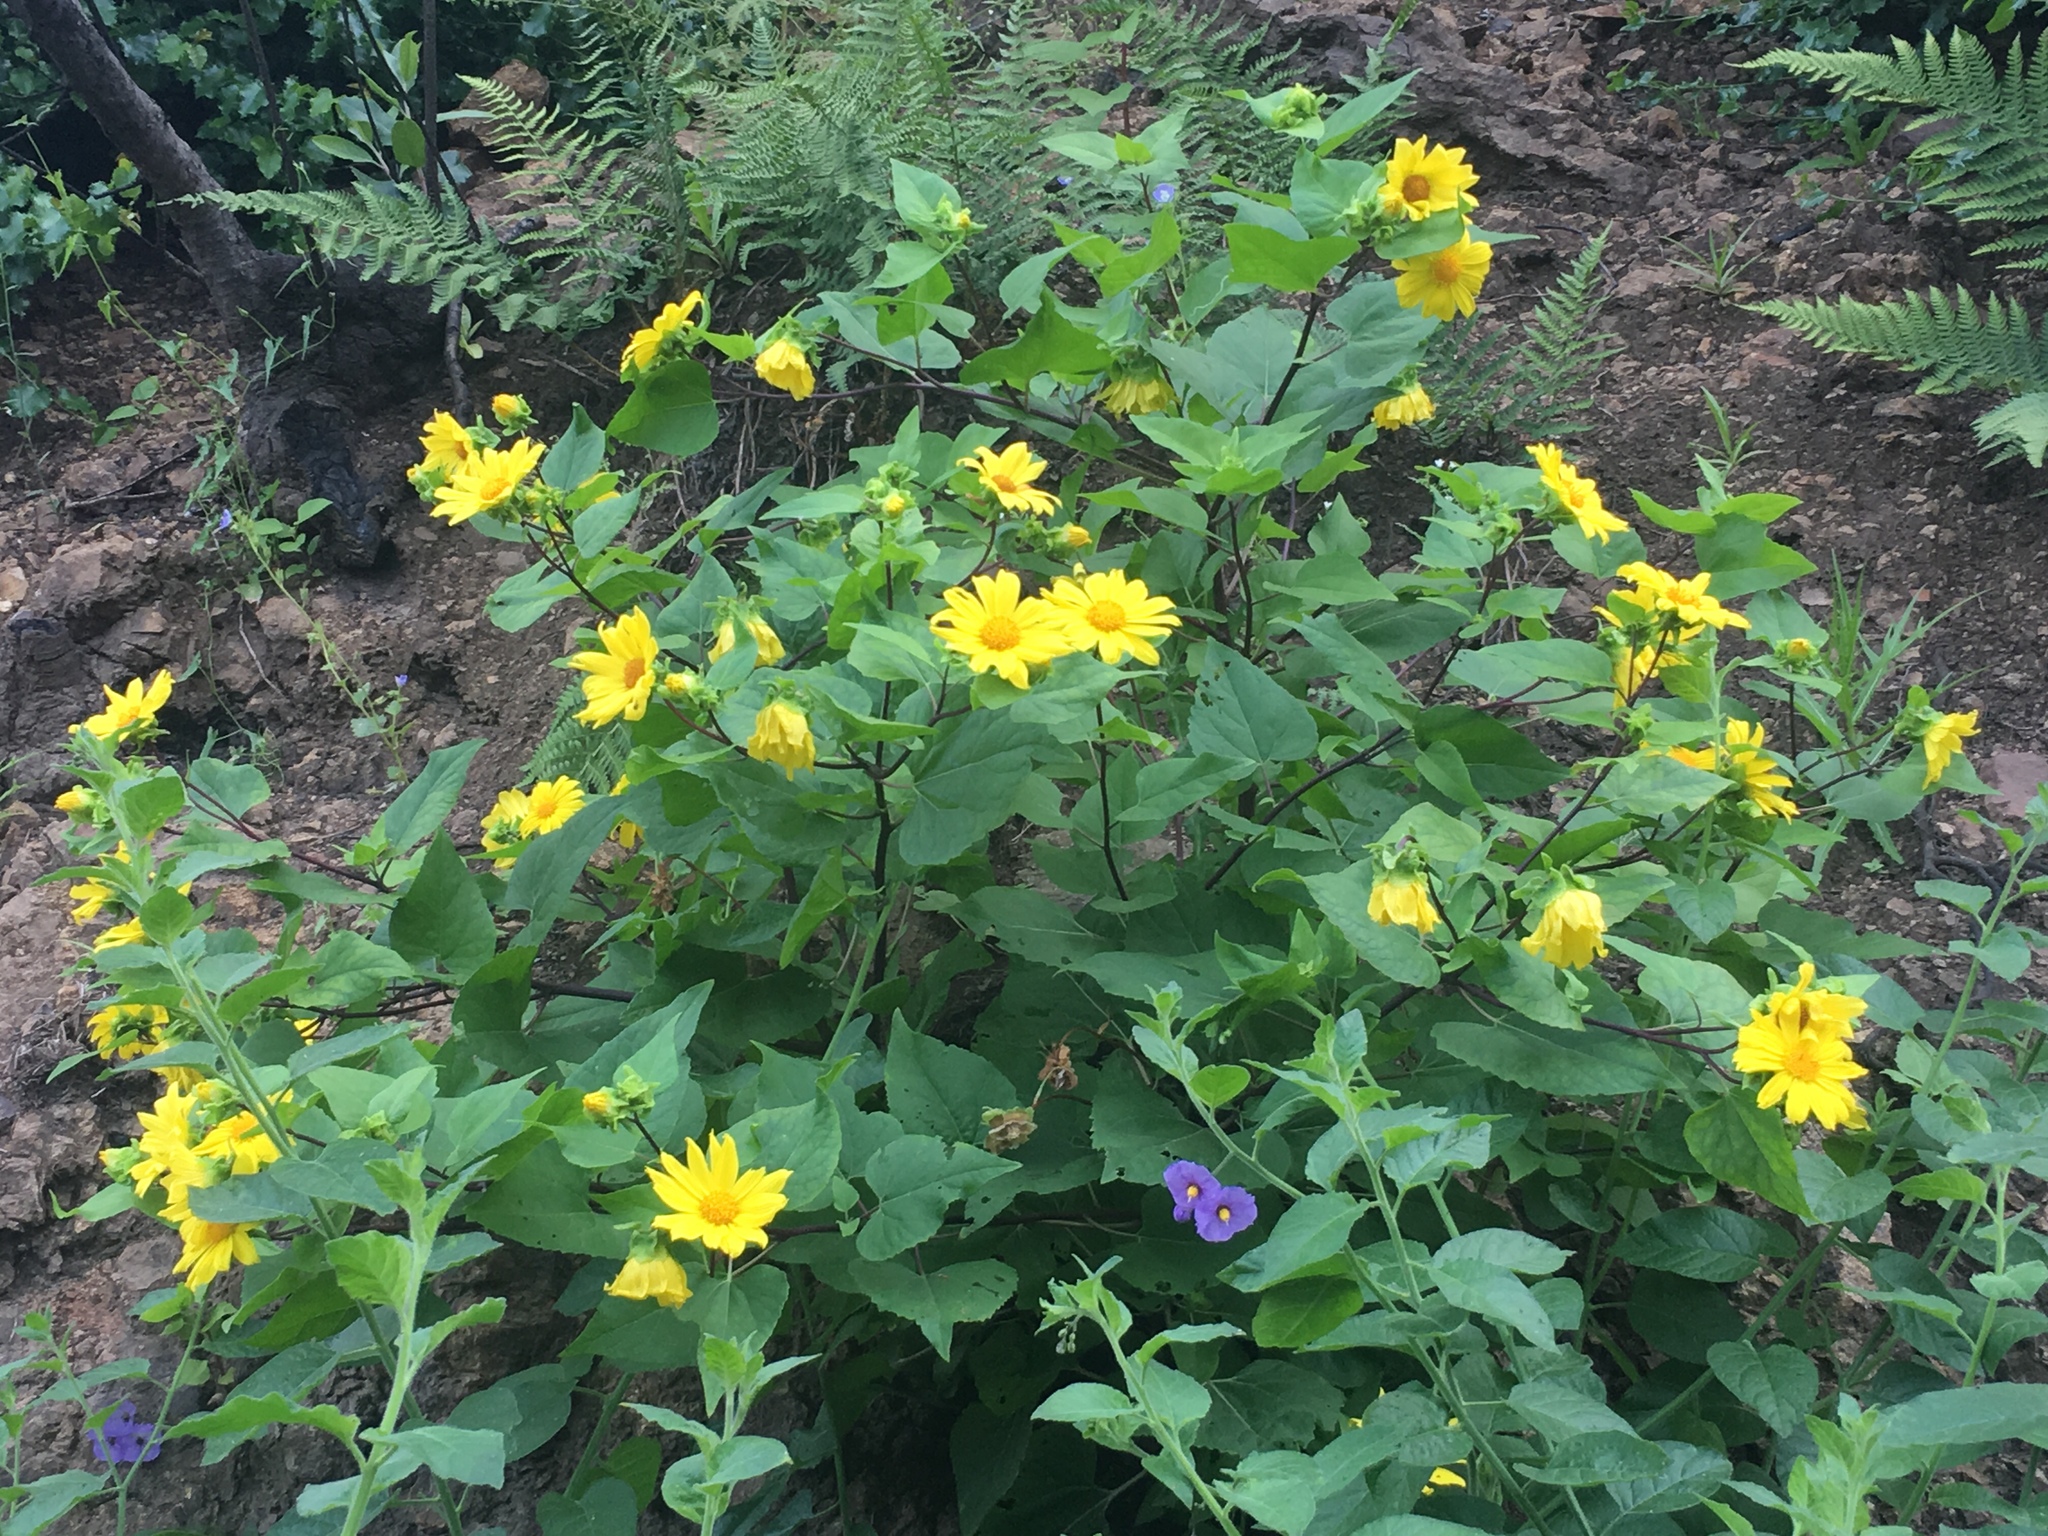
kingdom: Plantae
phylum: Tracheophyta
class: Magnoliopsida
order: Asterales
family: Asteraceae
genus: Venegasia
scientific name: Venegasia carpesioides
